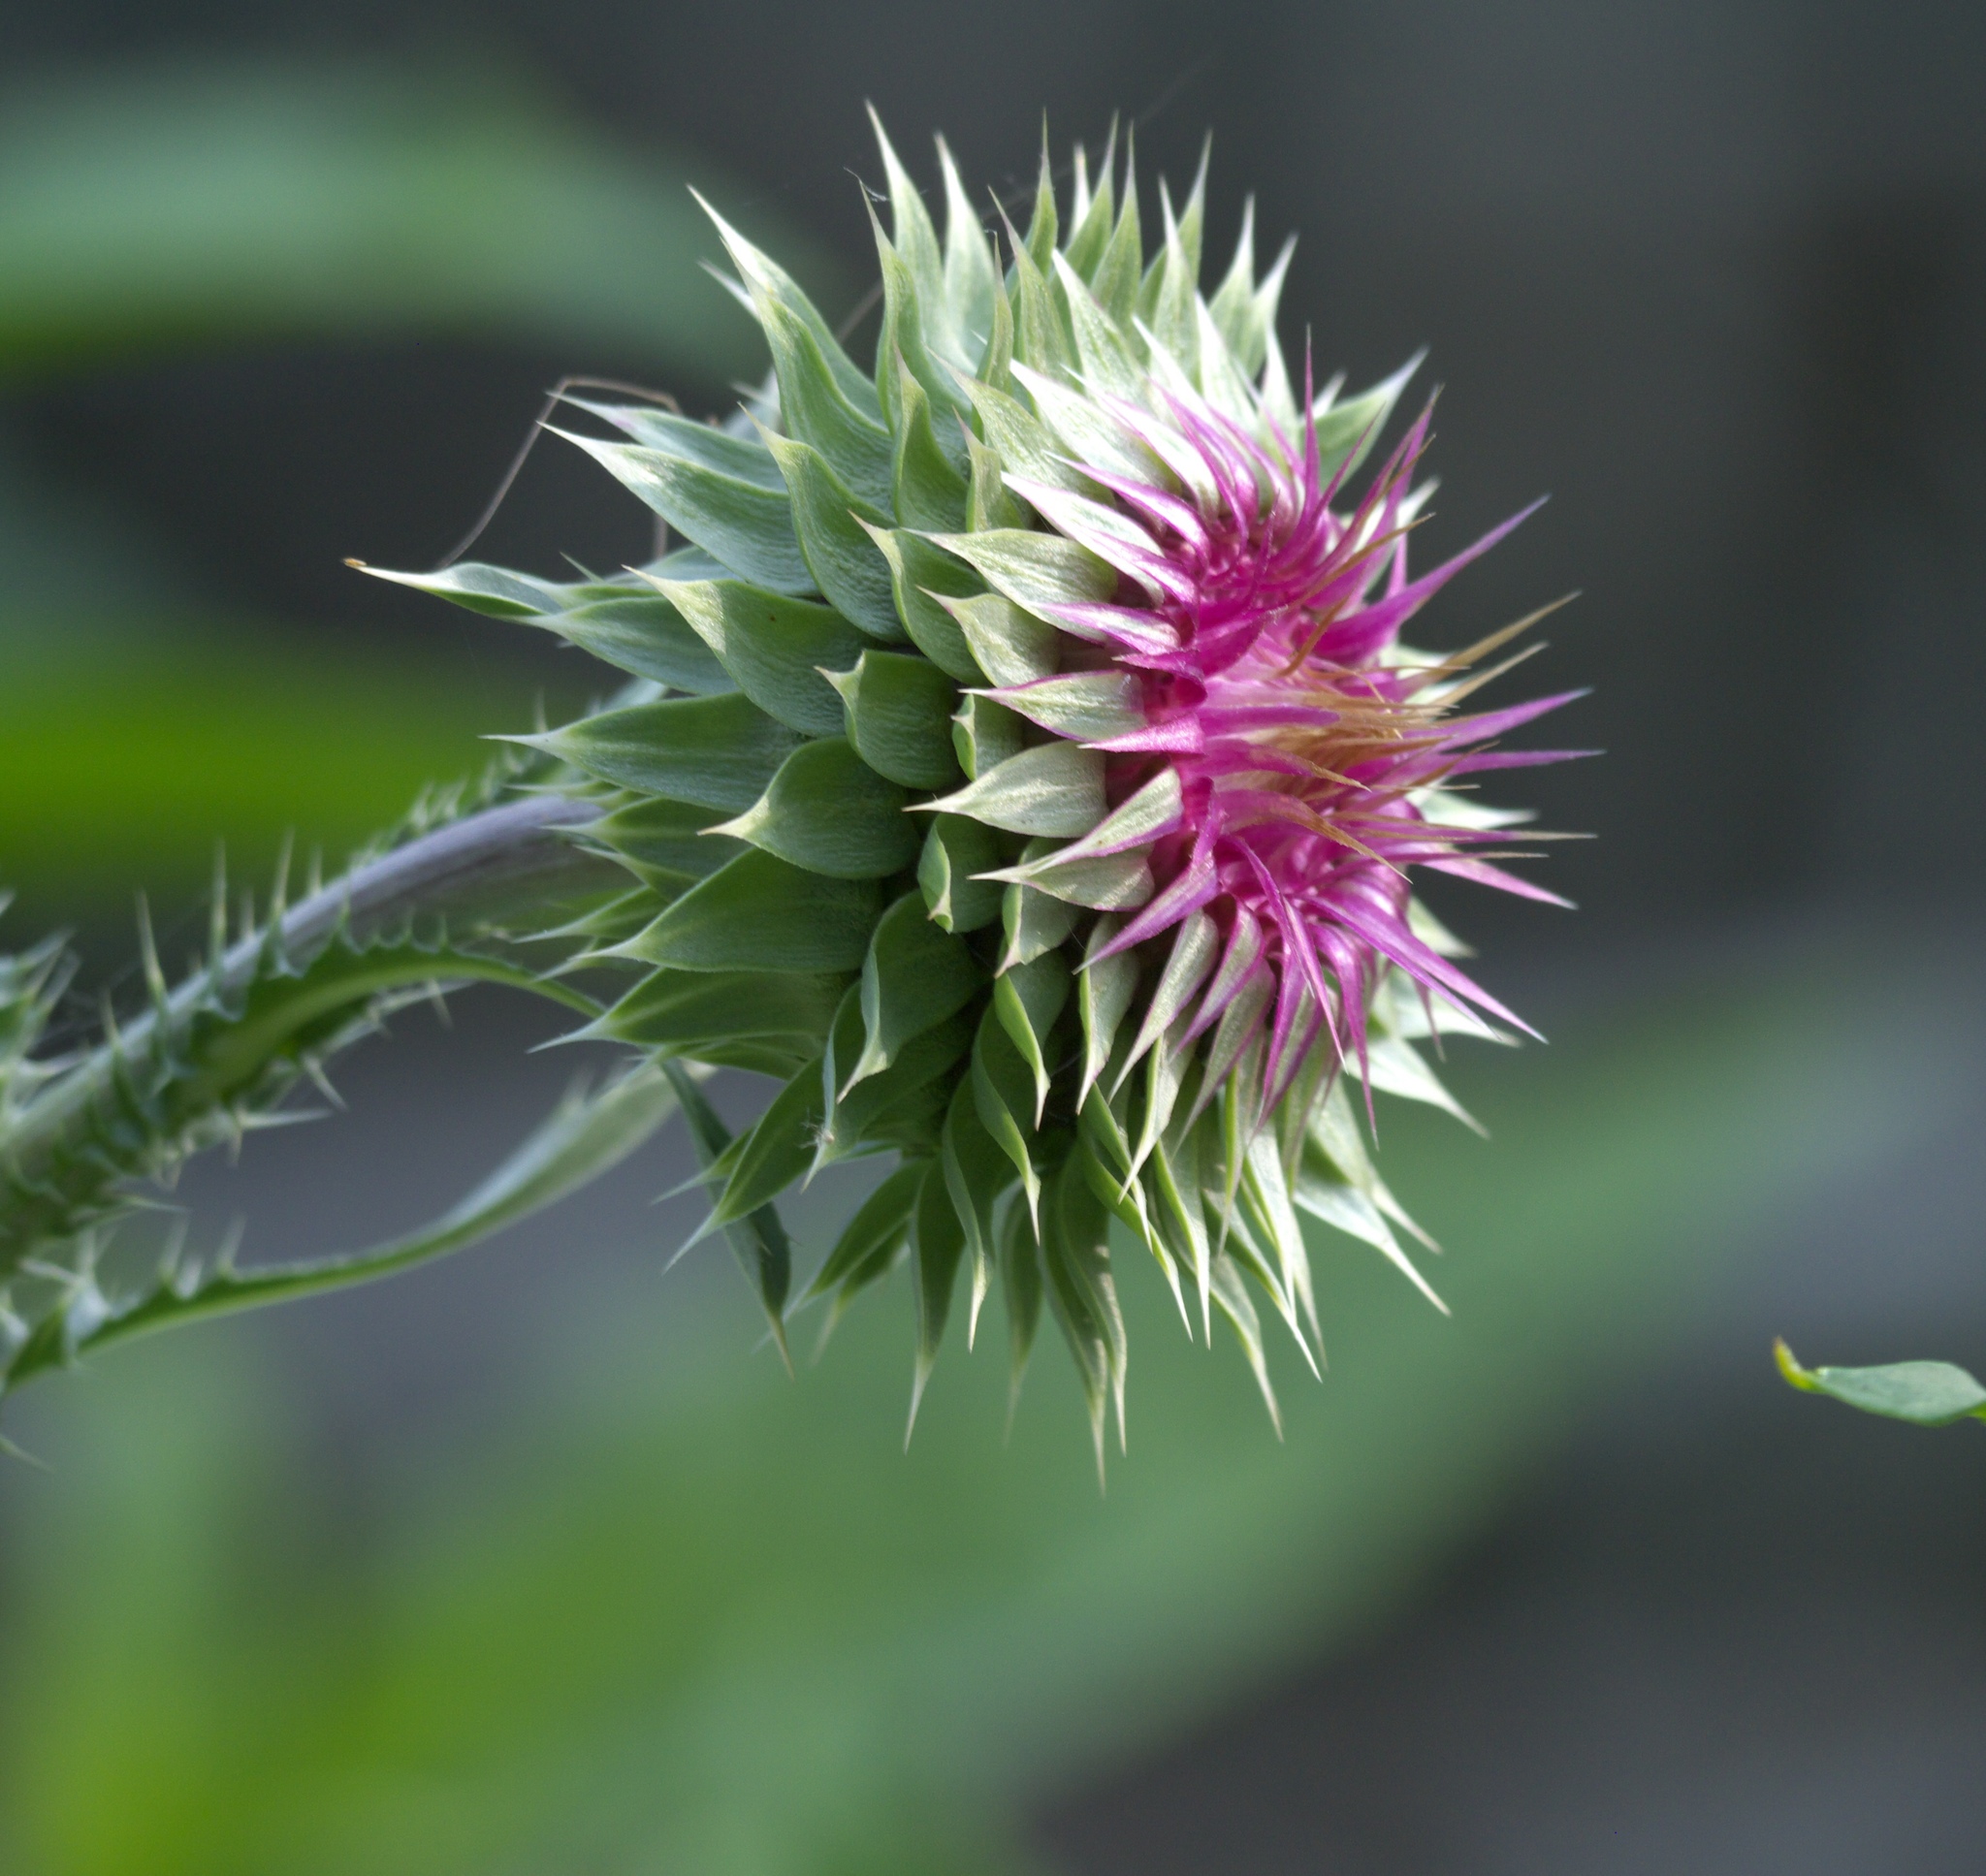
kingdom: Plantae
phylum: Tracheophyta
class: Magnoliopsida
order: Asterales
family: Asteraceae
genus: Carduus
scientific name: Carduus nutans
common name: Musk thistle
